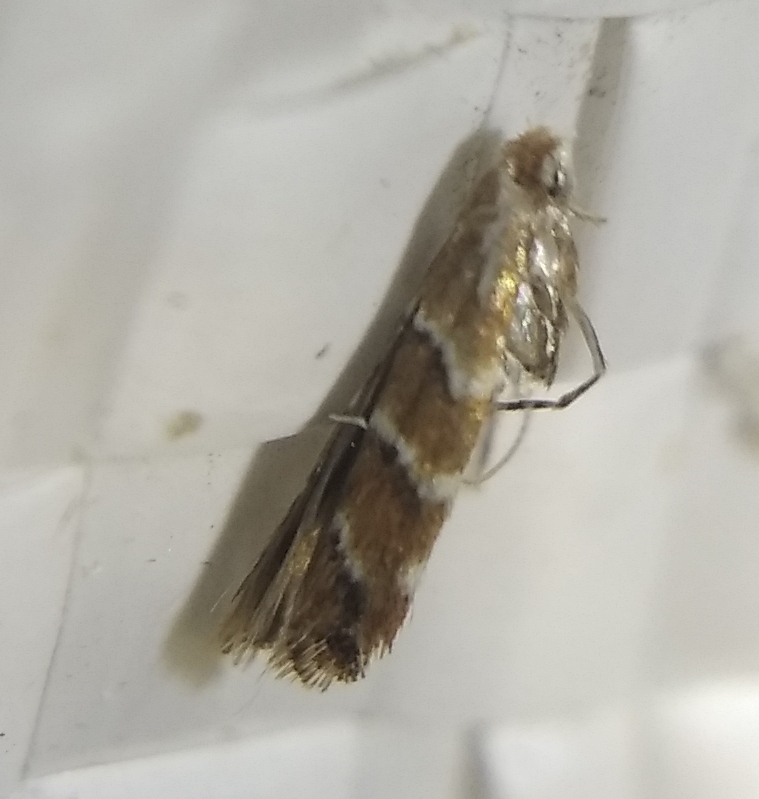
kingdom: Animalia
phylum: Arthropoda
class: Insecta
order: Lepidoptera
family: Gracillariidae
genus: Cameraria
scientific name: Cameraria ohridella
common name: Horse-chestnut leaf-miner
